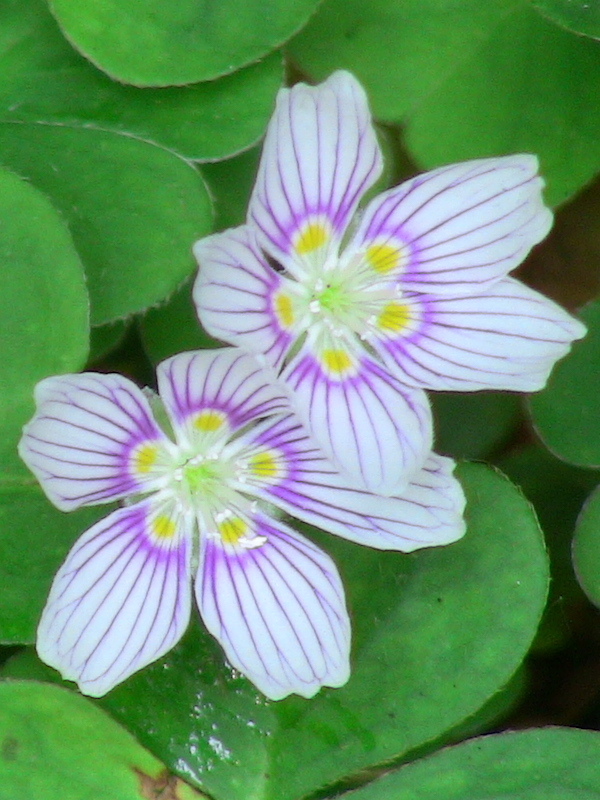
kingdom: Plantae
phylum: Tracheophyta
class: Magnoliopsida
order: Oxalidales
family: Oxalidaceae
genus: Oxalis
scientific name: Oxalis montana
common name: American wood-sorrel
